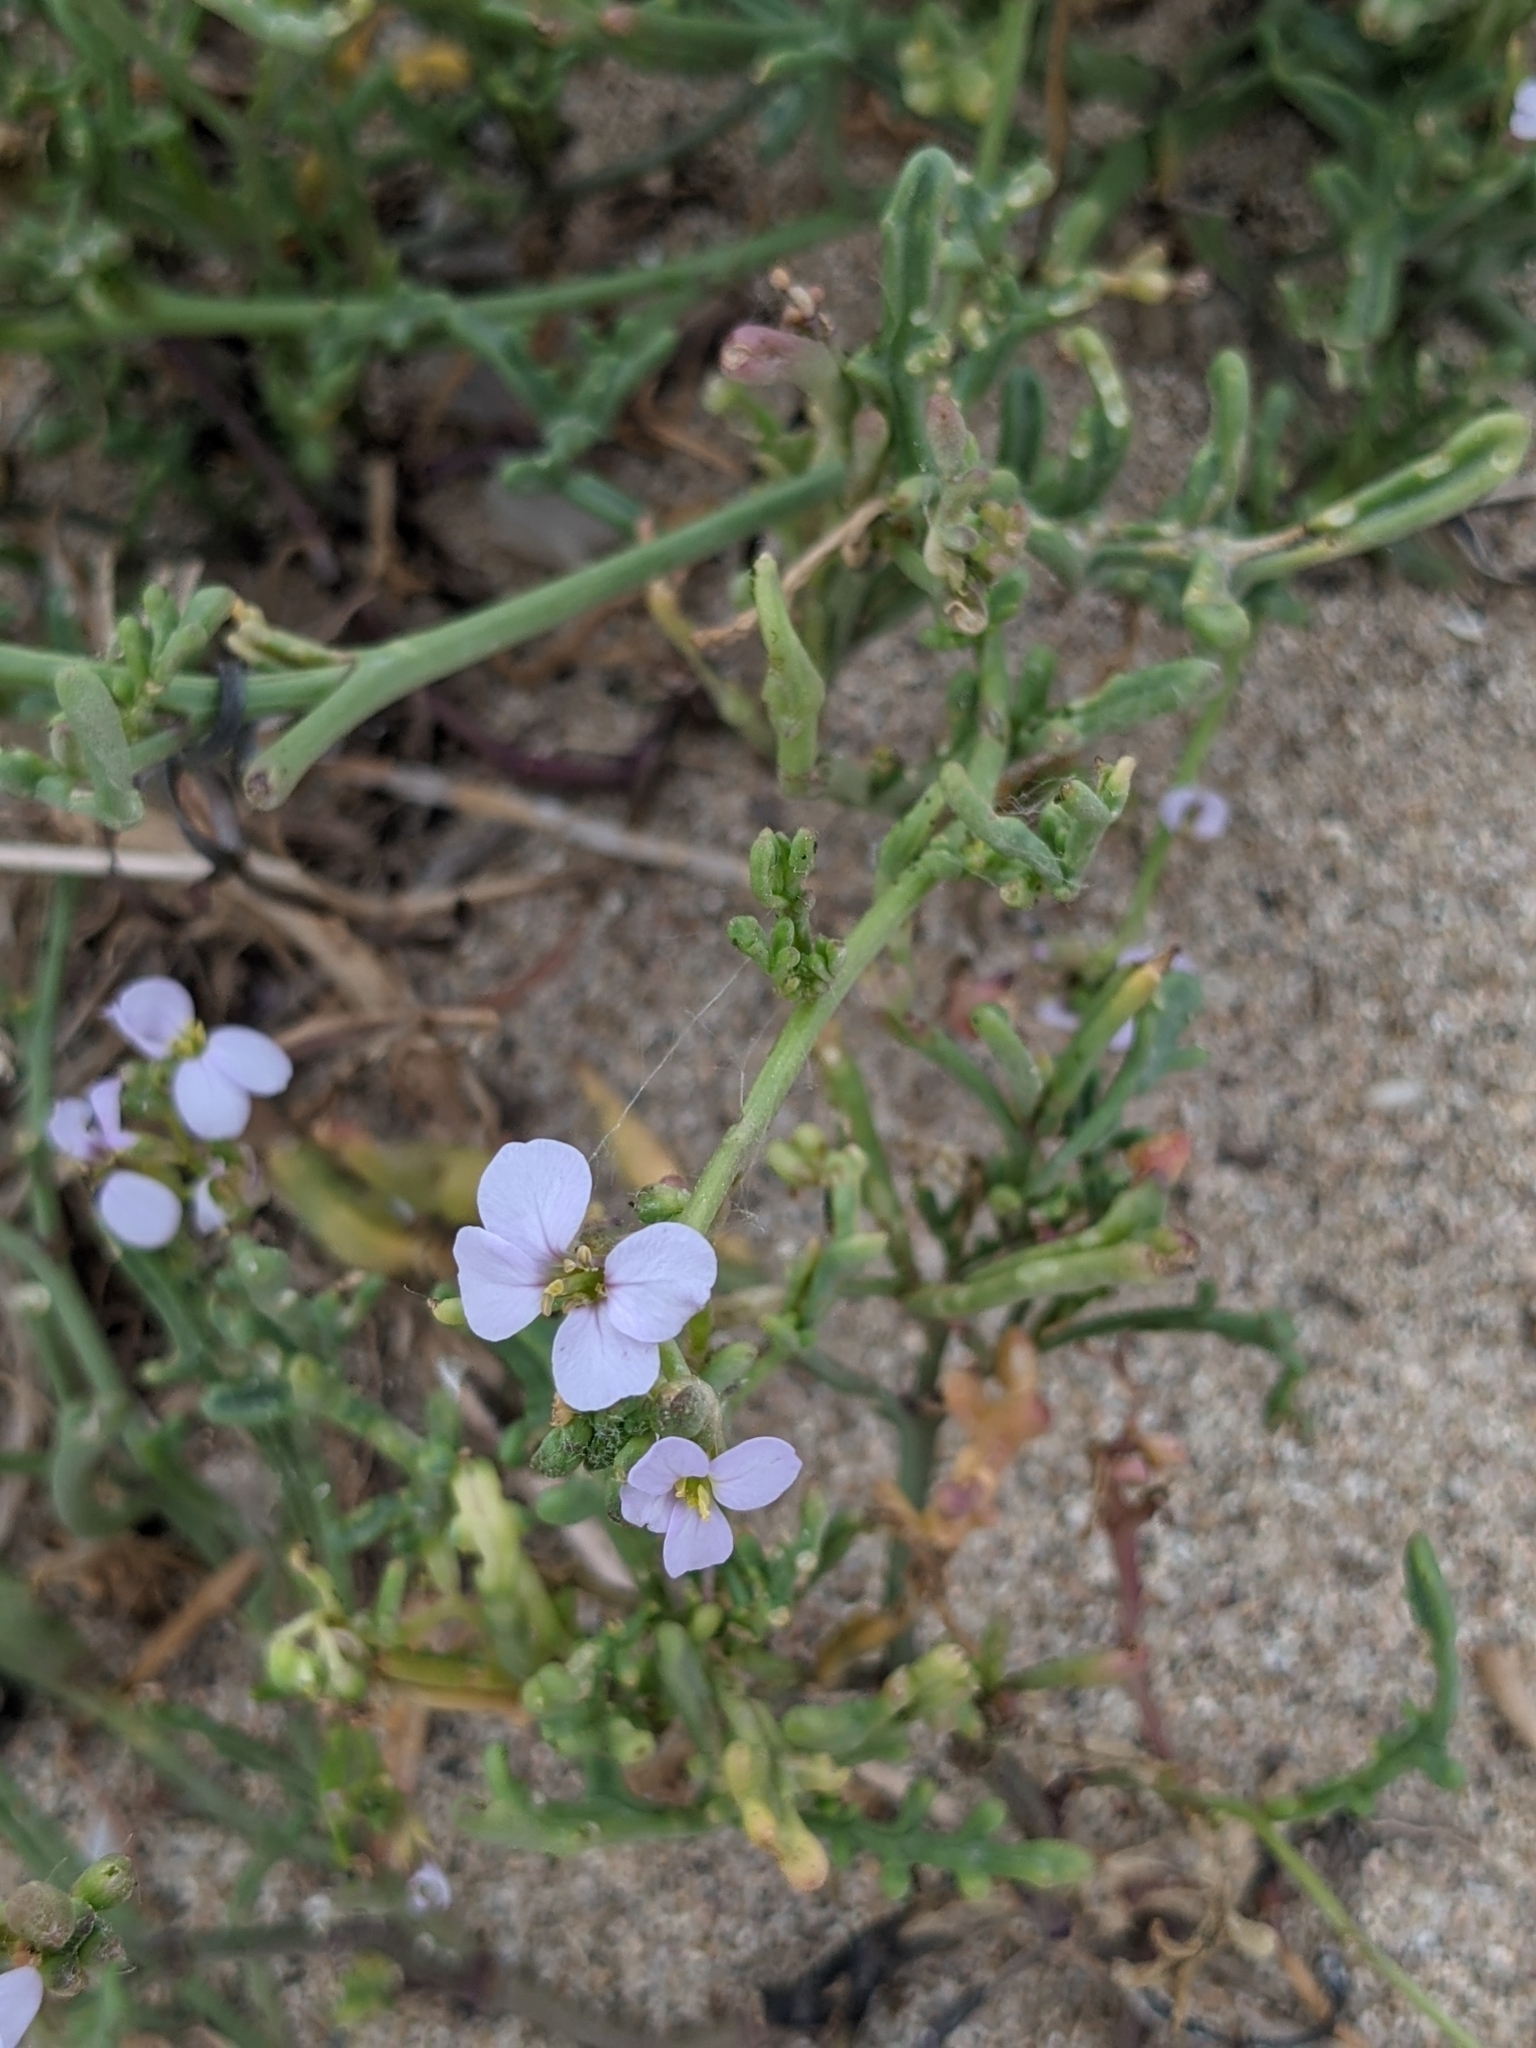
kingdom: Plantae
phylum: Tracheophyta
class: Magnoliopsida
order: Brassicales
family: Brassicaceae
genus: Cakile
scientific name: Cakile maritima
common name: Sea rocket
